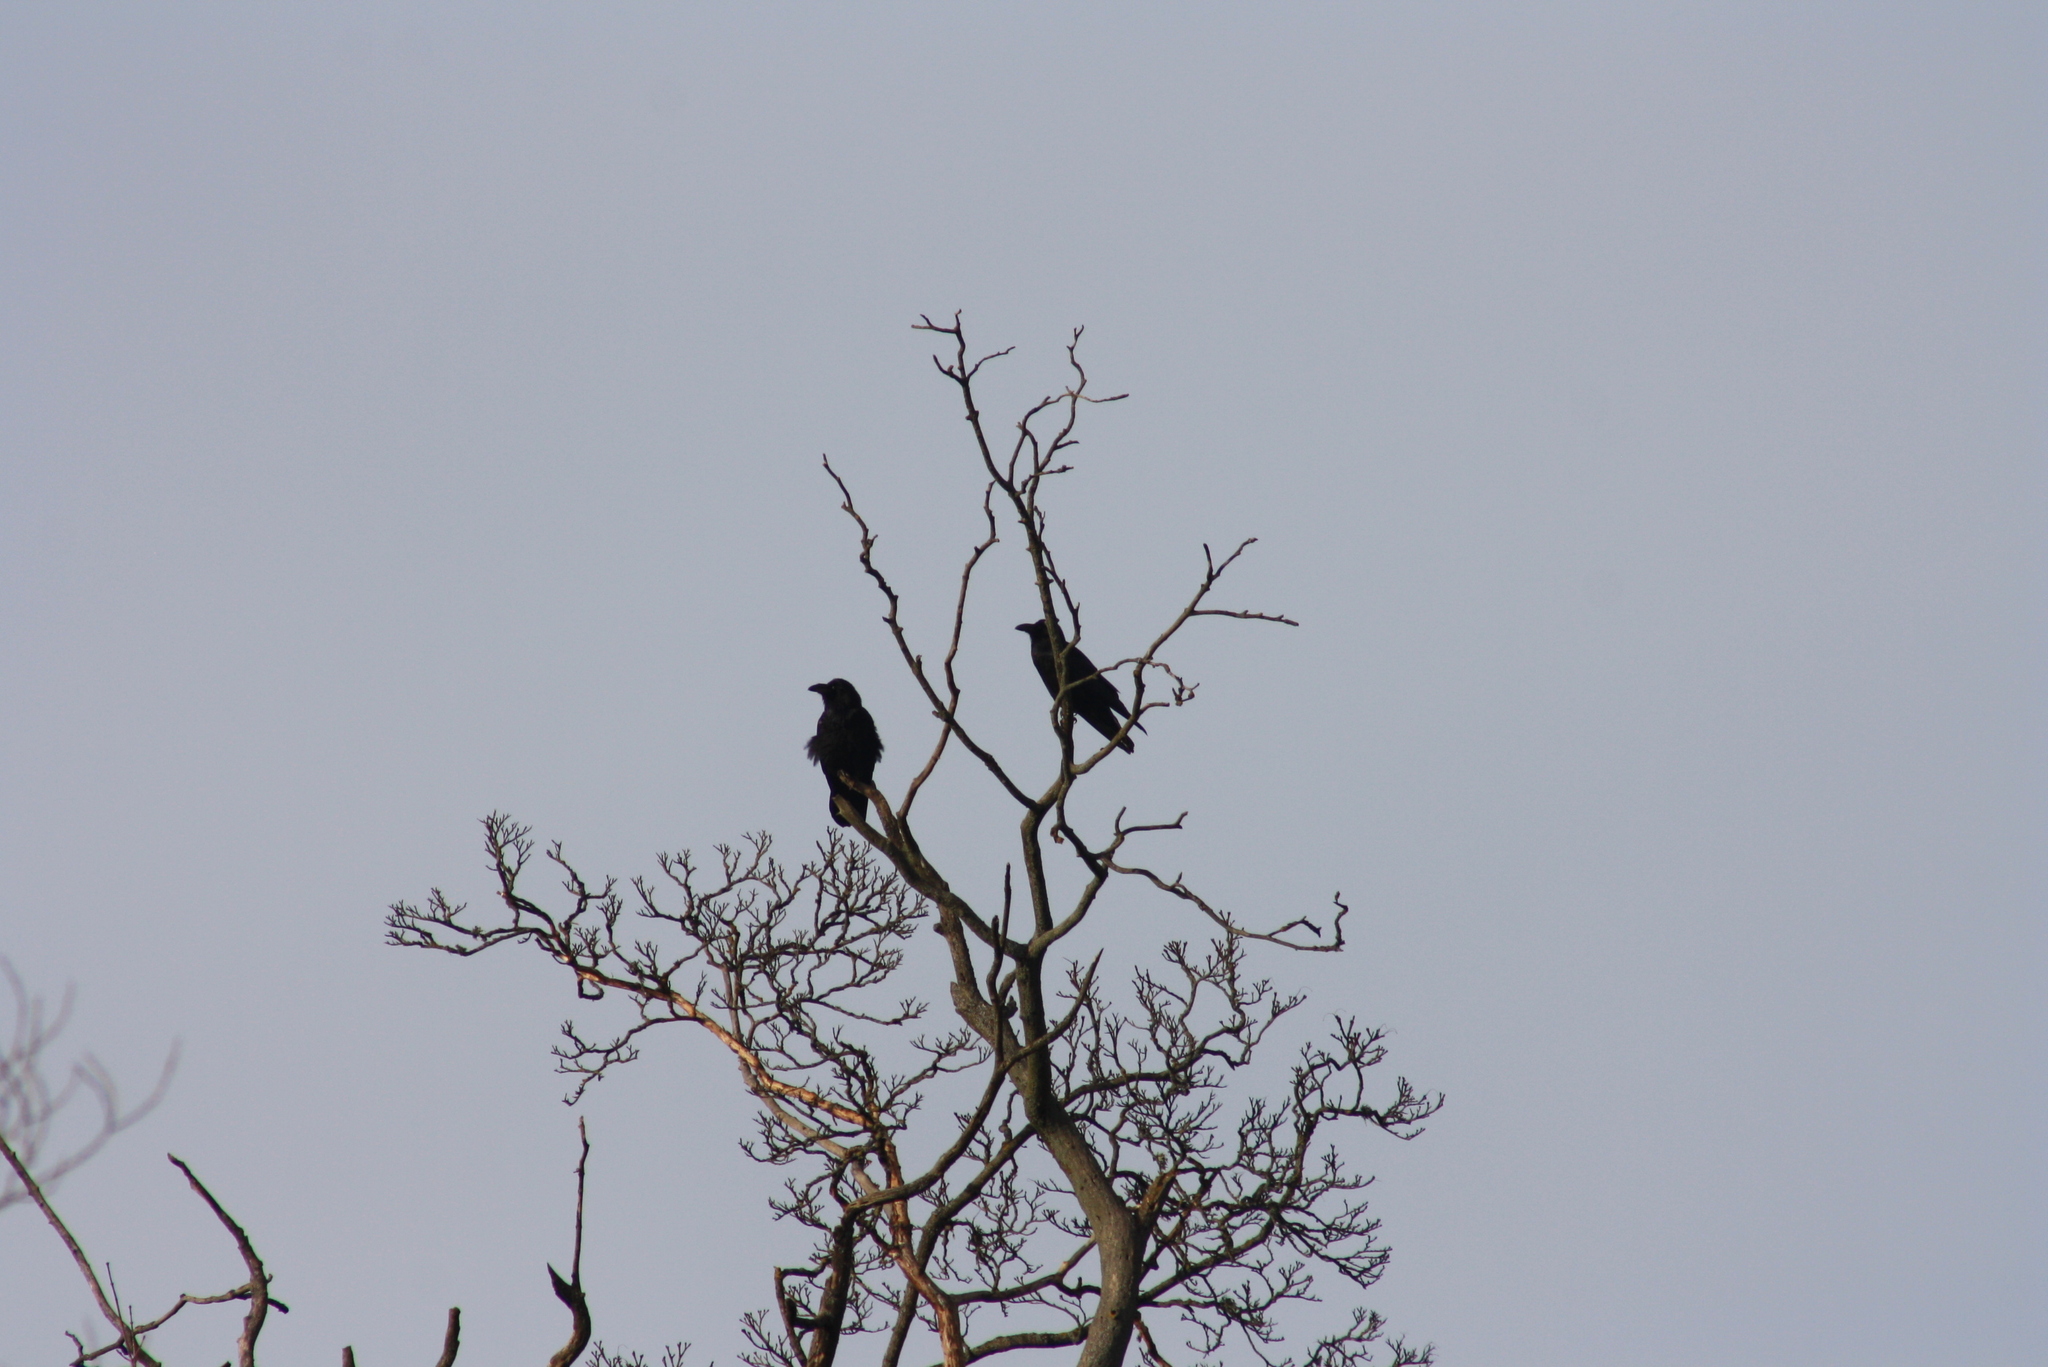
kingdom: Animalia
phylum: Chordata
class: Aves
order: Passeriformes
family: Corvidae
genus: Corvus
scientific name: Corvus corax
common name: Common raven
